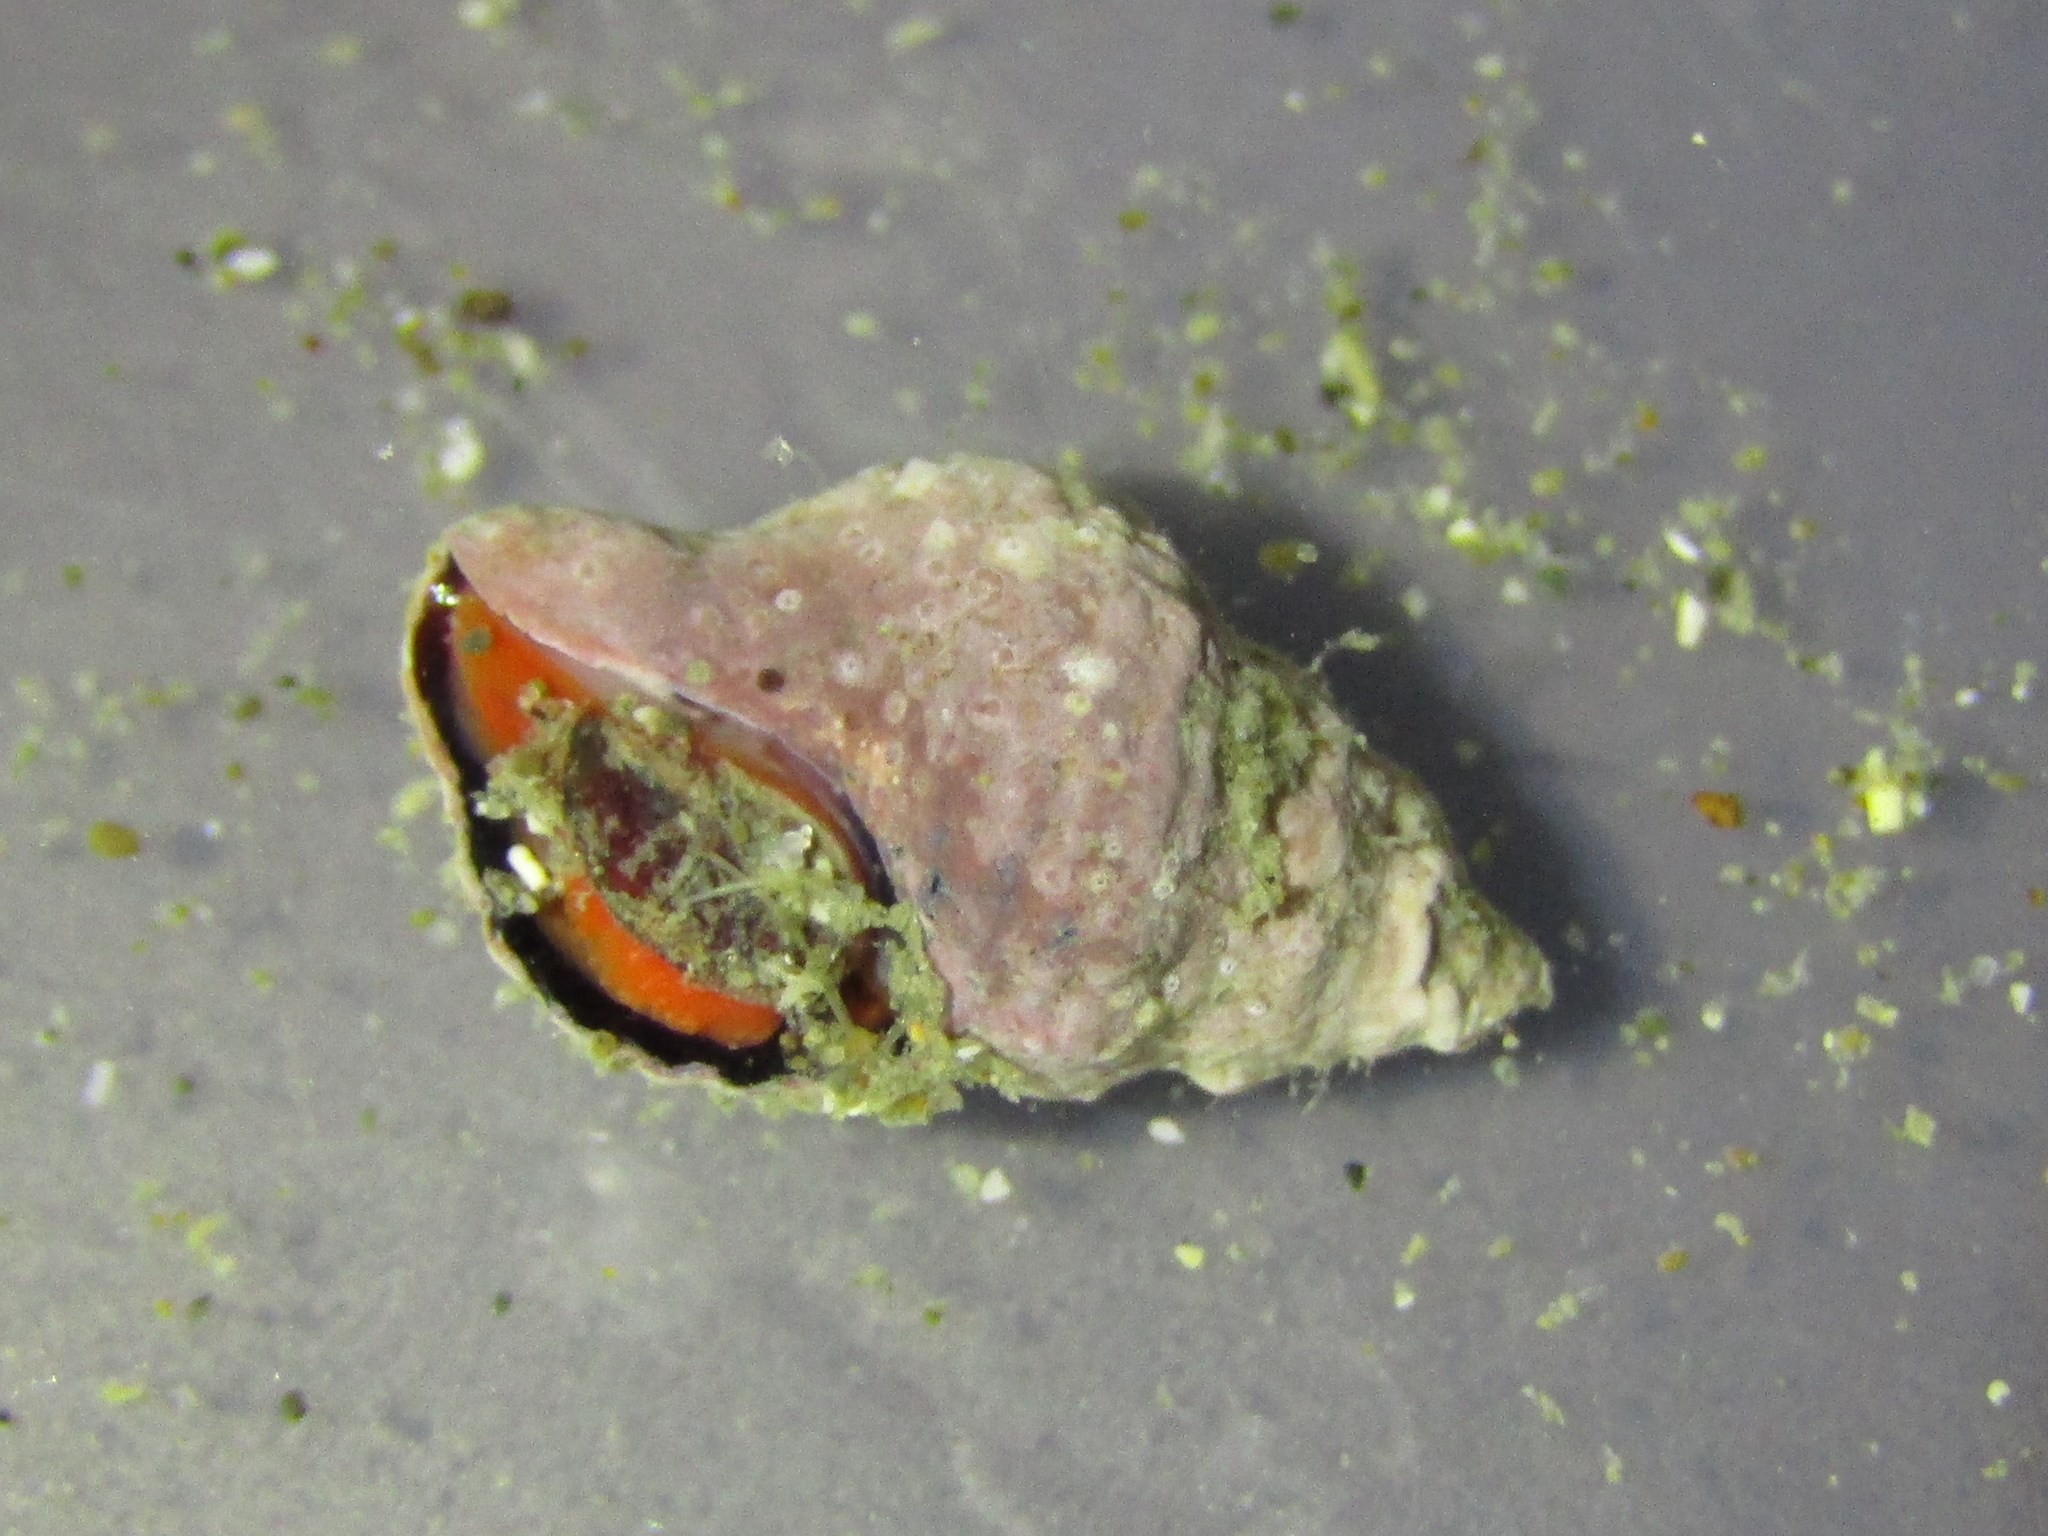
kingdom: Animalia
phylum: Mollusca
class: Gastropoda
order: Neogastropoda
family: Fasciolariidae
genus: Taron
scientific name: Taron dubius
